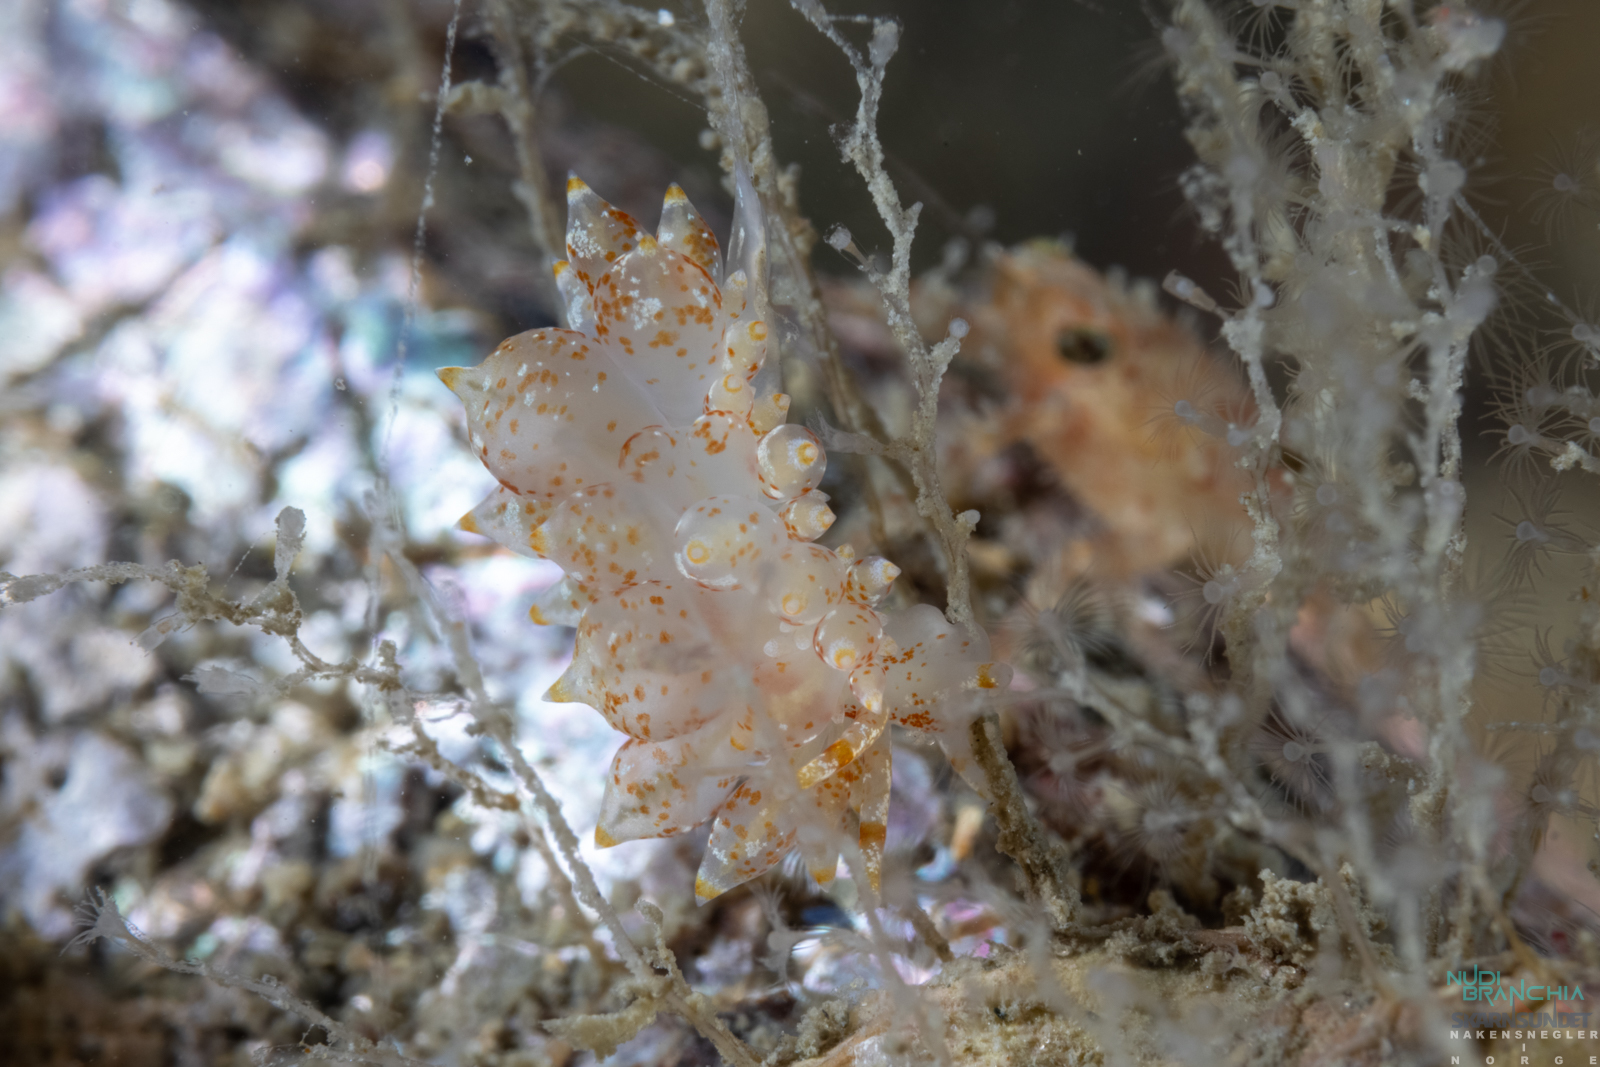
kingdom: Animalia
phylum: Mollusca
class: Gastropoda
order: Nudibranchia
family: Eubranchidae
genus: Amphorina
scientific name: Amphorina pallida
